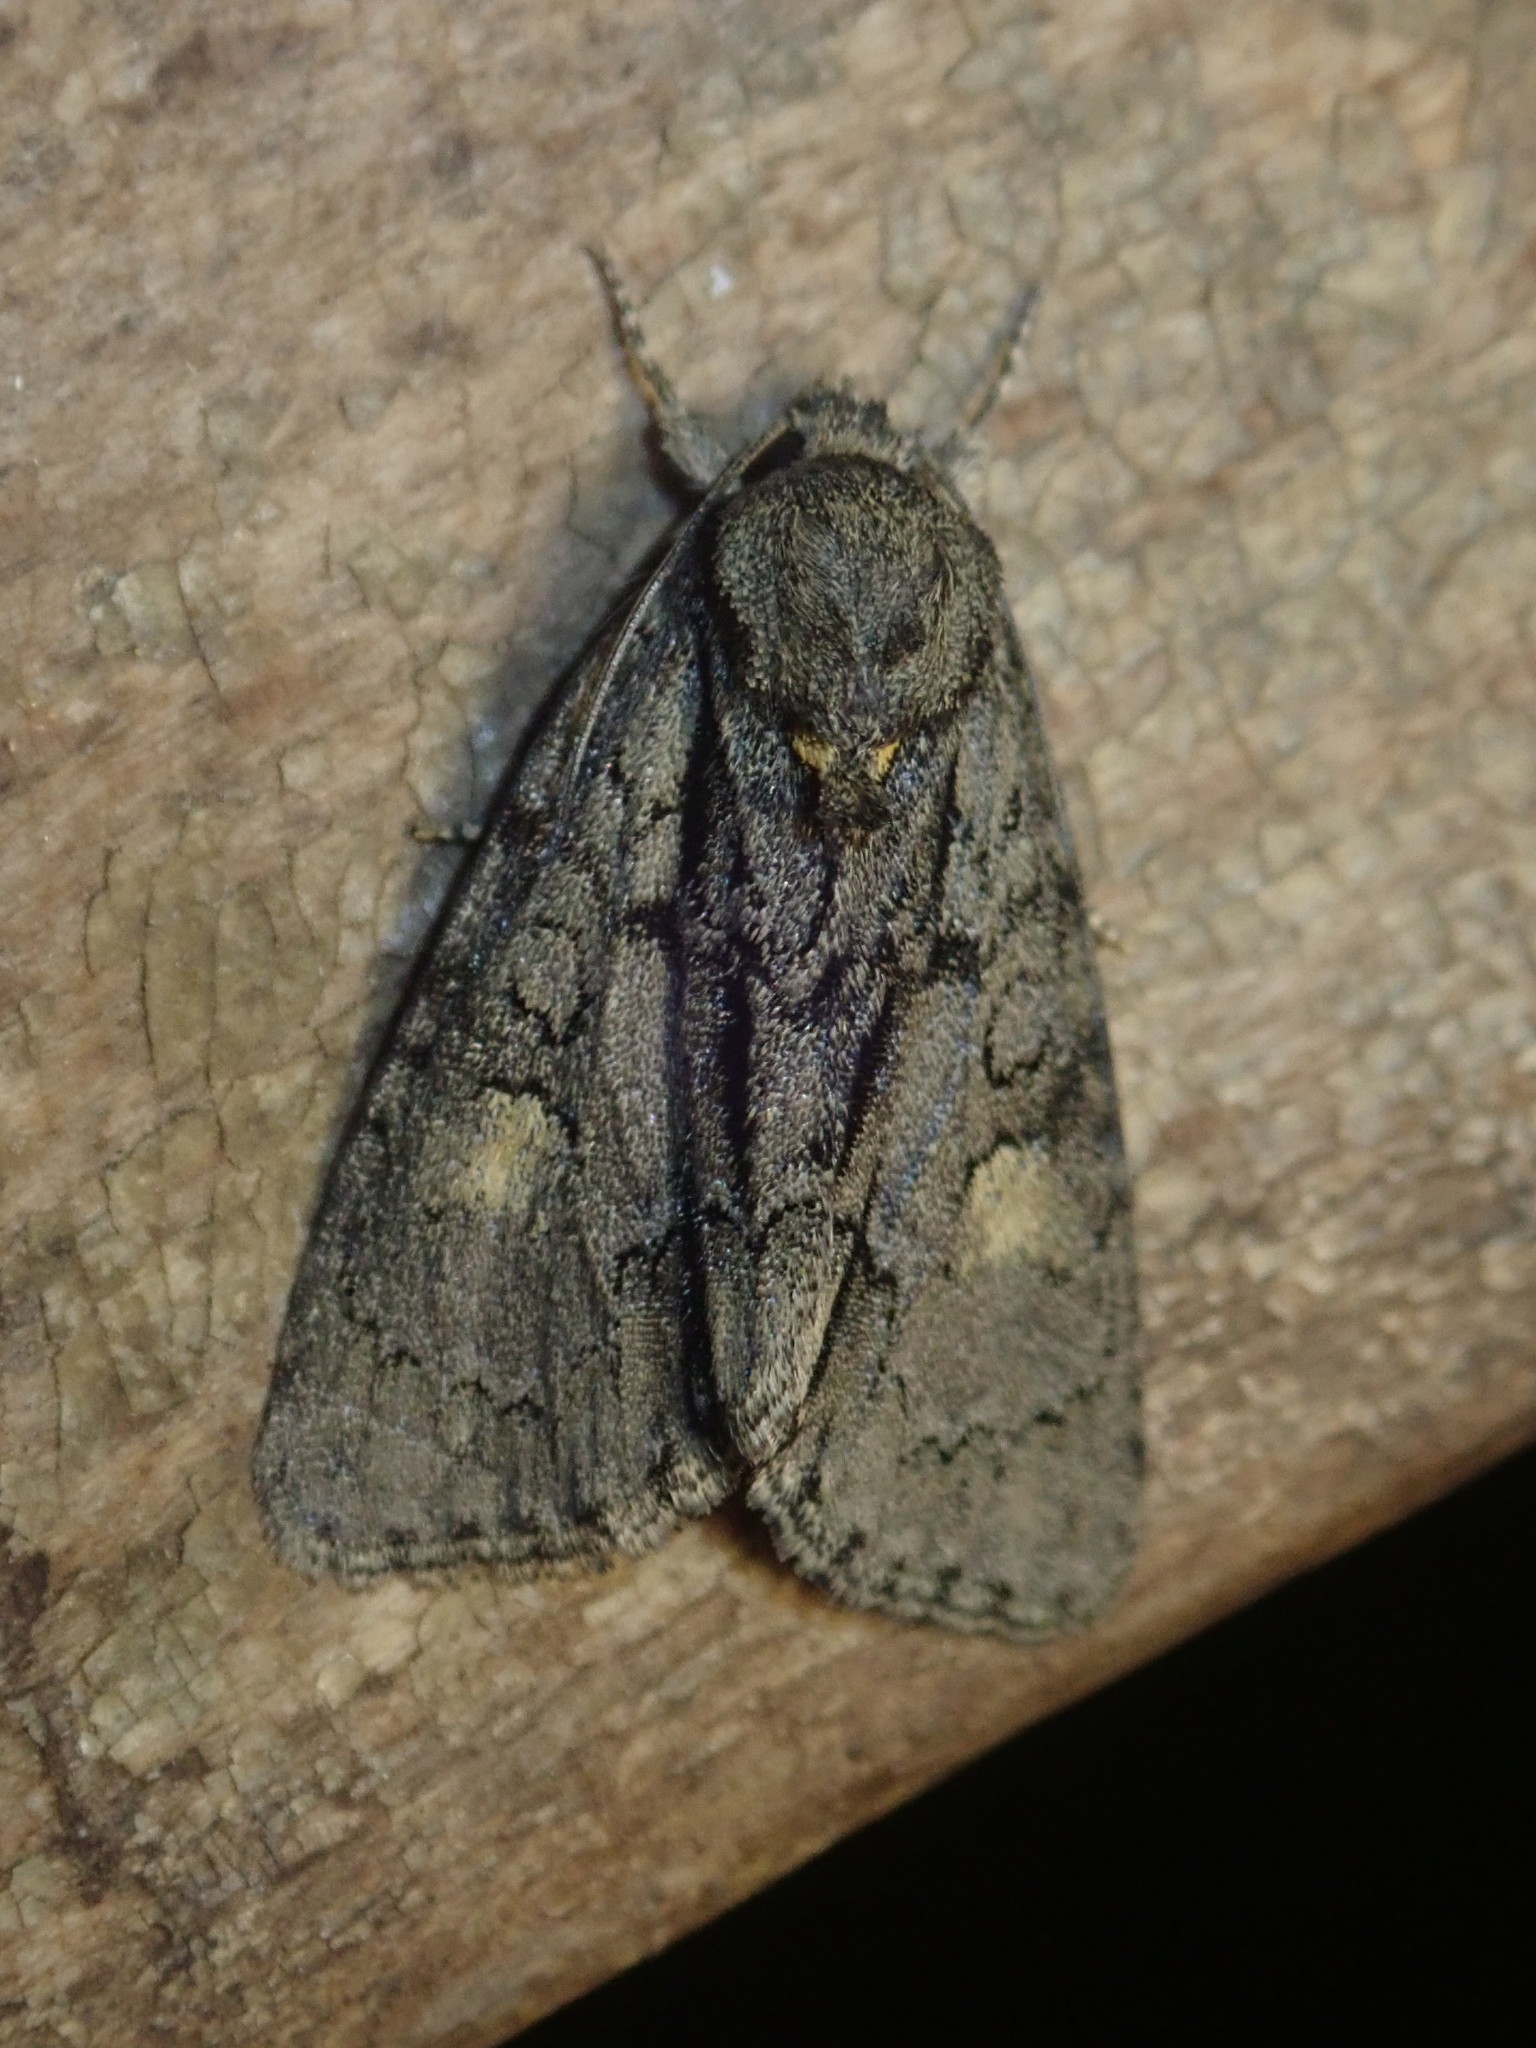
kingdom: Animalia
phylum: Arthropoda
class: Insecta
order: Lepidoptera
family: Noctuidae
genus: Acronicta
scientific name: Acronicta strigosa
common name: Marsh dagger
